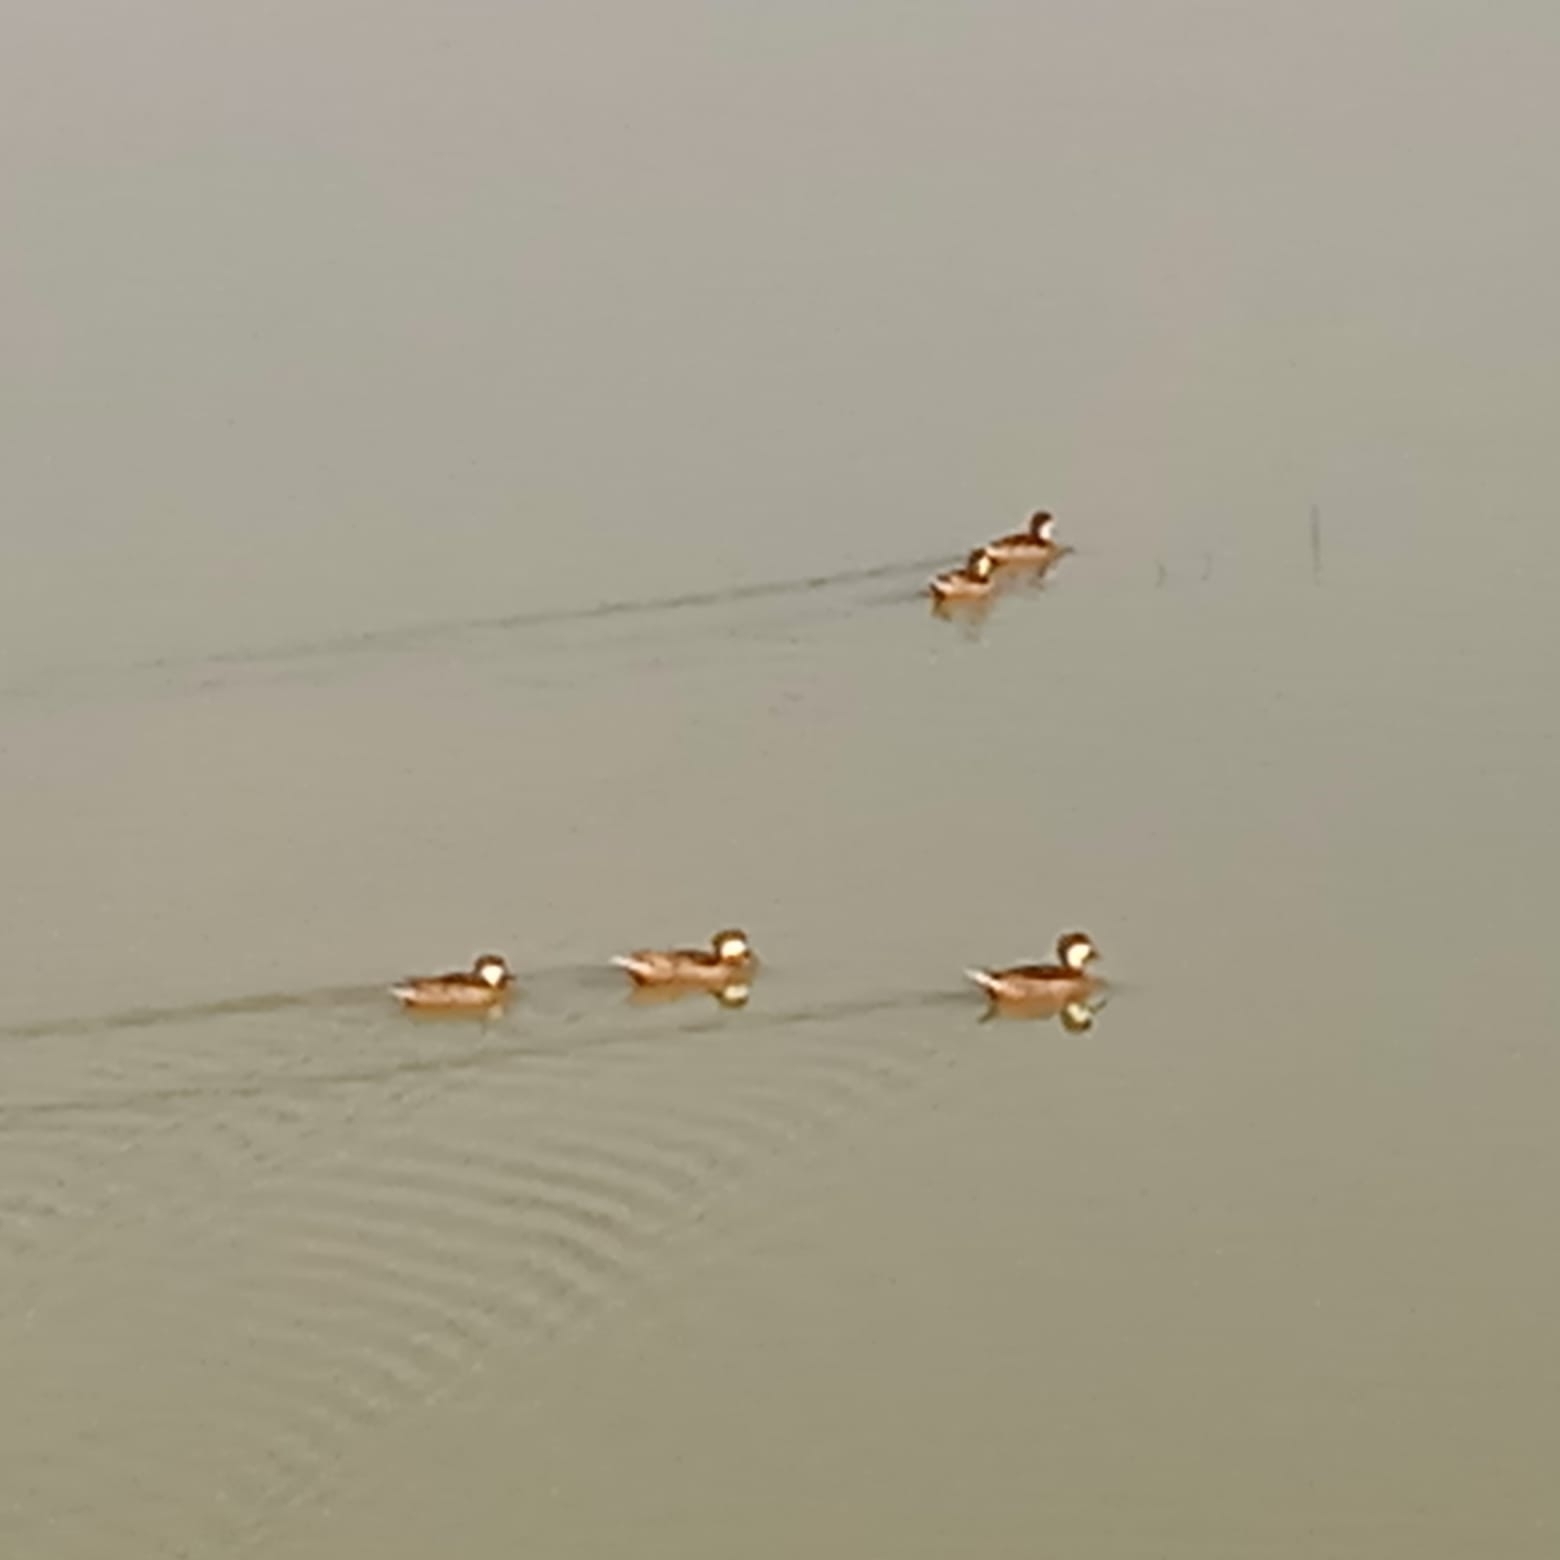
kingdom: Animalia
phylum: Chordata
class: Aves
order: Anseriformes
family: Anatidae
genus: Anas
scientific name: Anas bahamensis
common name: White-cheeked pintail
